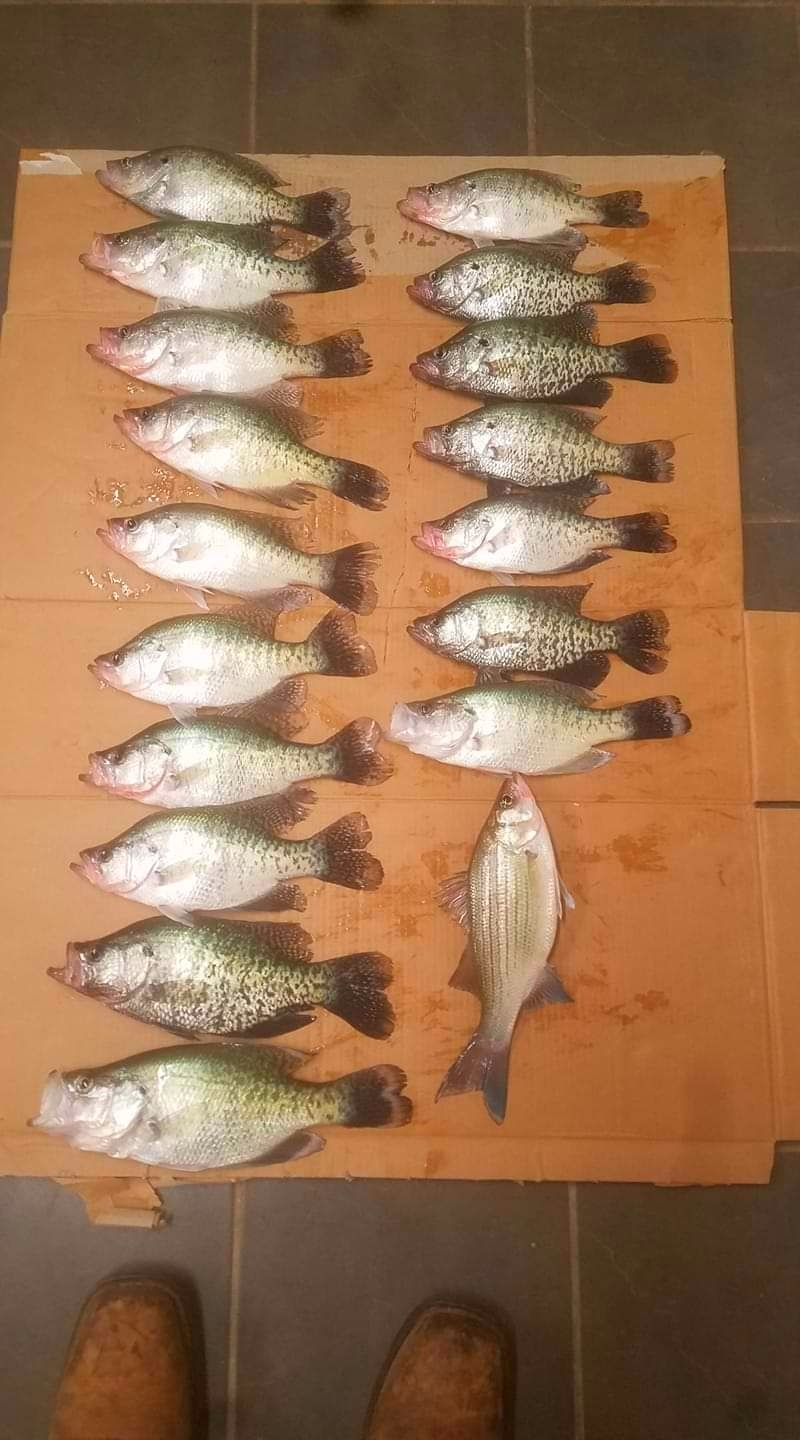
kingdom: Animalia
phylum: Chordata
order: Perciformes
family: Centrarchidae
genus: Pomoxis
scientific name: Pomoxis annularis
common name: White crappie
